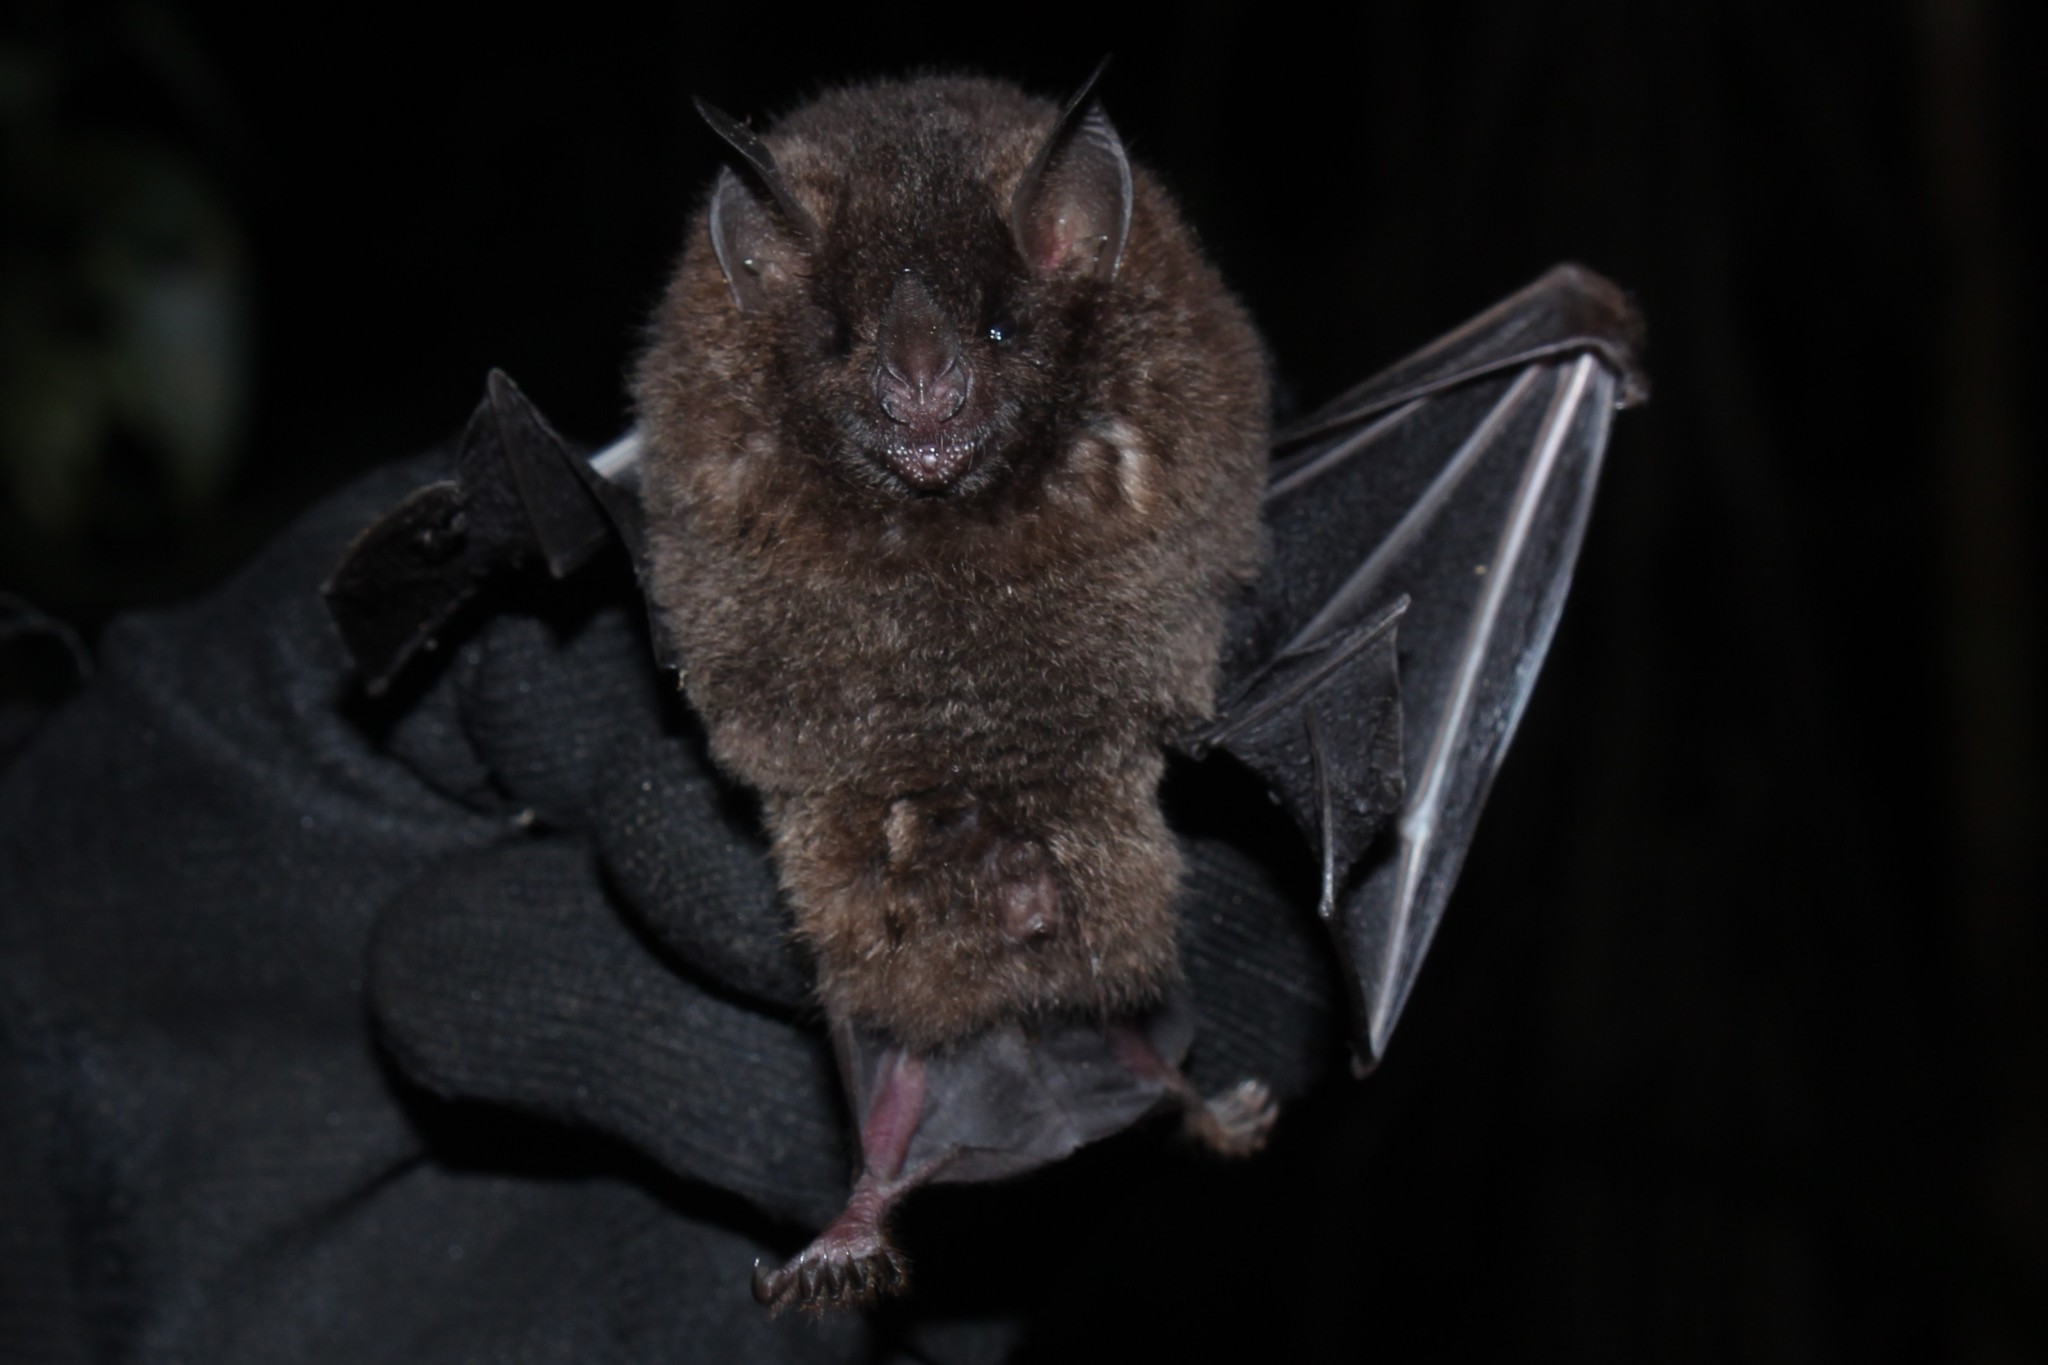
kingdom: Animalia
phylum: Chordata
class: Mammalia
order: Chiroptera
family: Phyllostomidae
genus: Carollia
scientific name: Carollia perspicillata
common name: Seba's short-tailed bat
